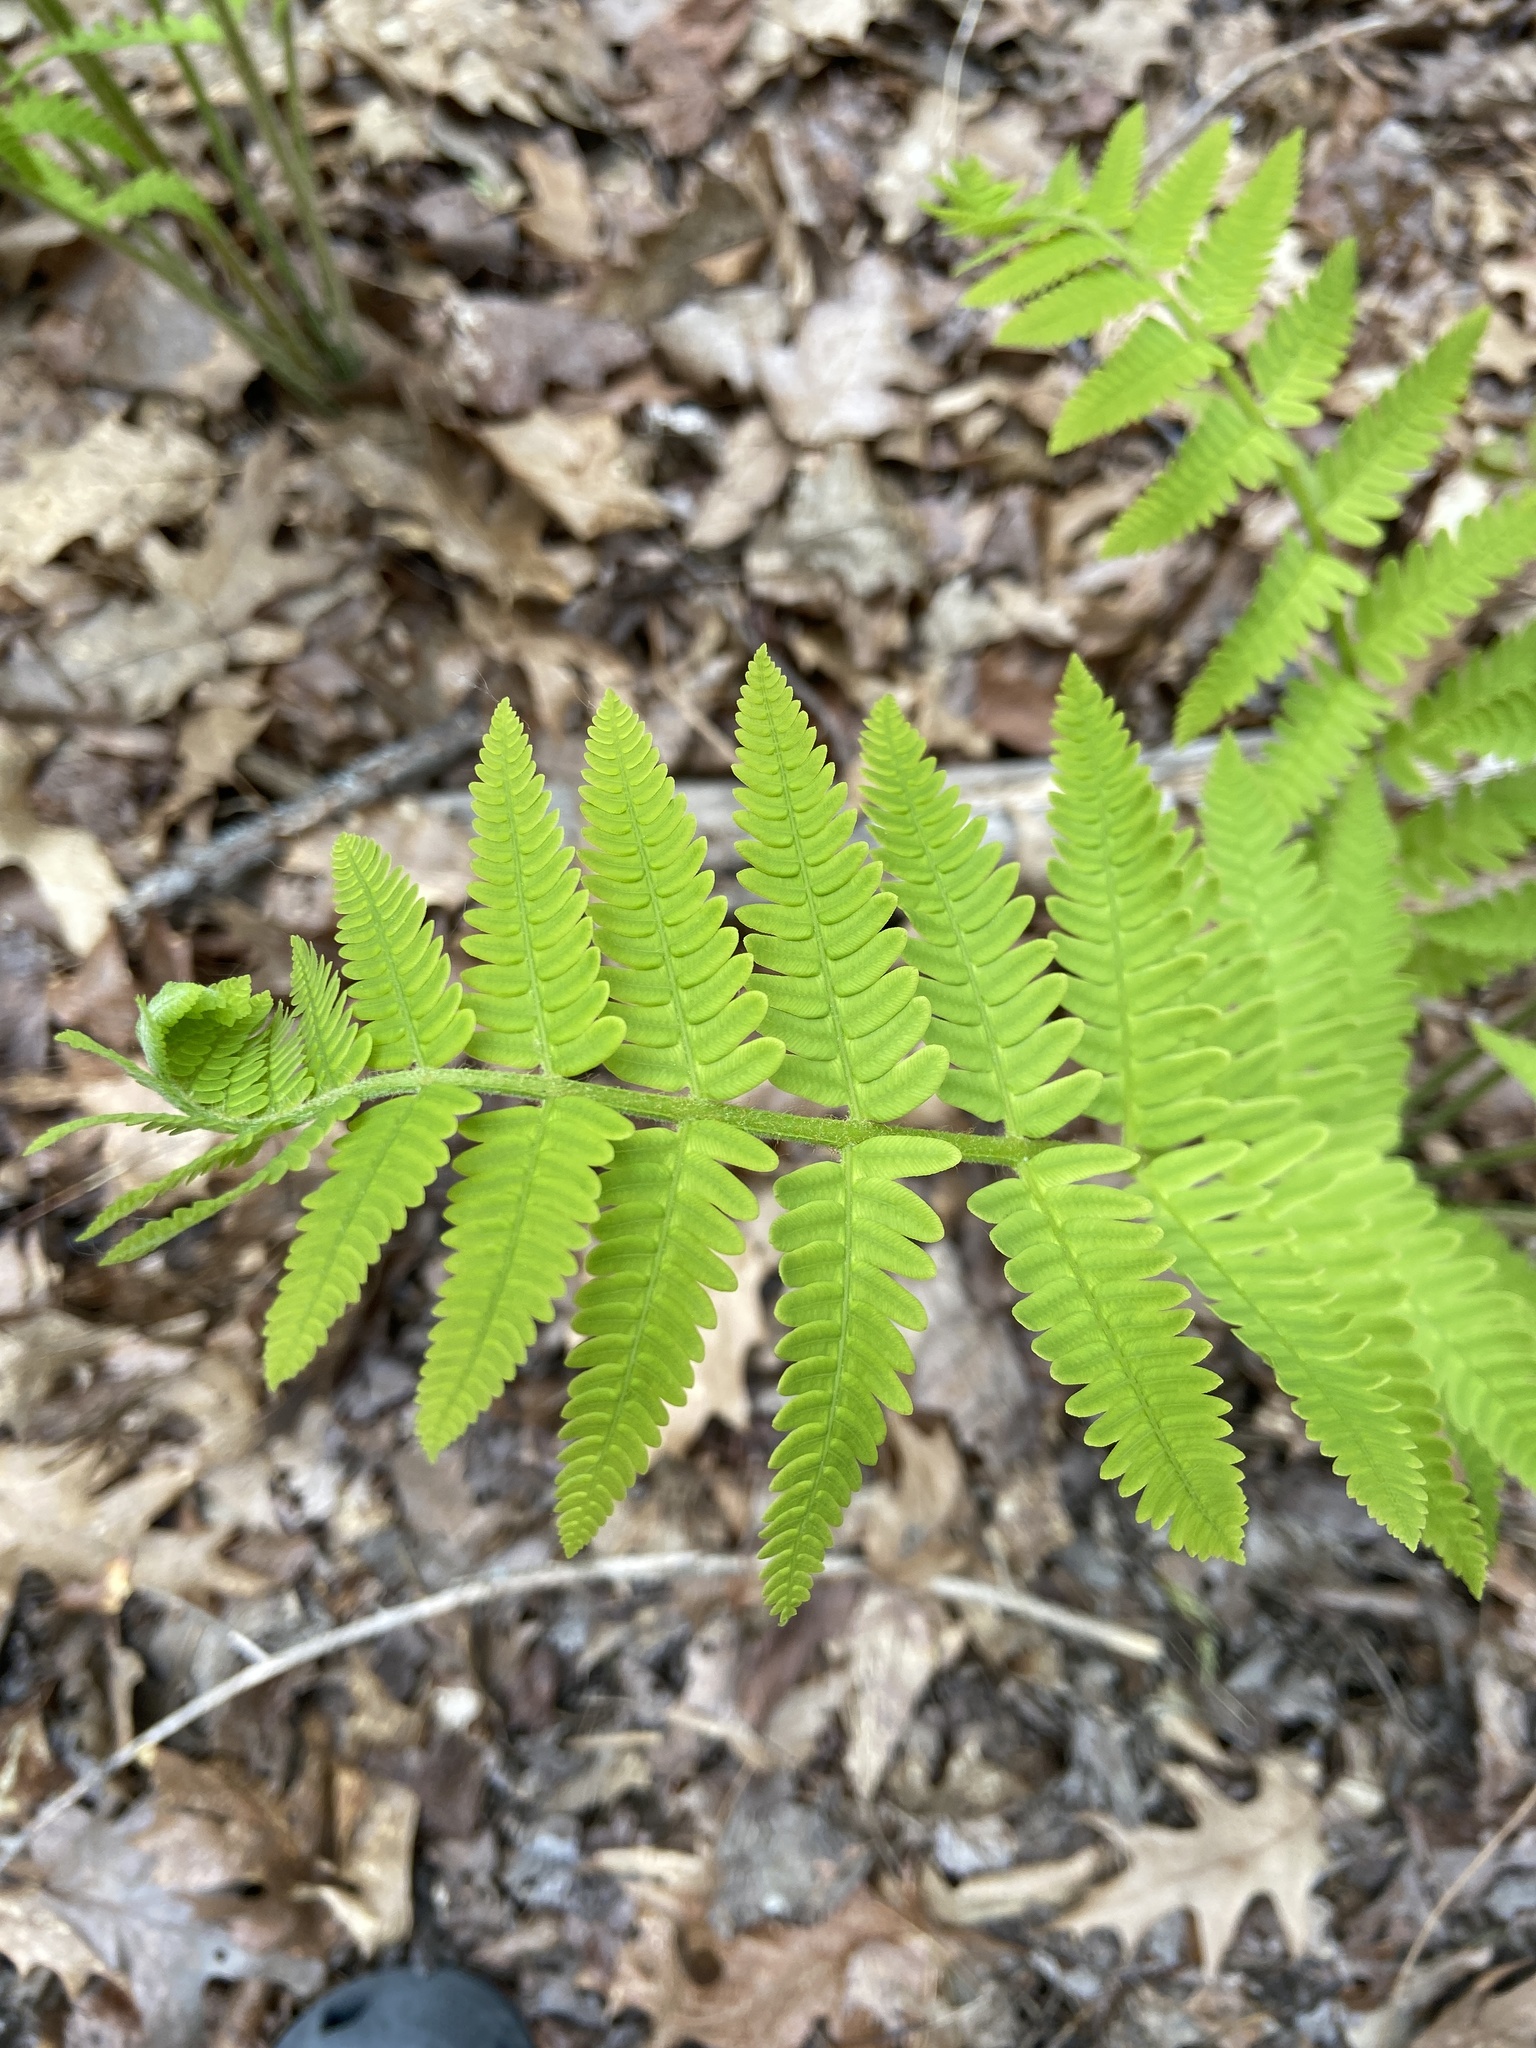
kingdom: Plantae
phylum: Tracheophyta
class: Polypodiopsida
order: Osmundales
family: Osmundaceae
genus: Claytosmunda
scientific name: Claytosmunda claytoniana
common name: Clayton's fern
